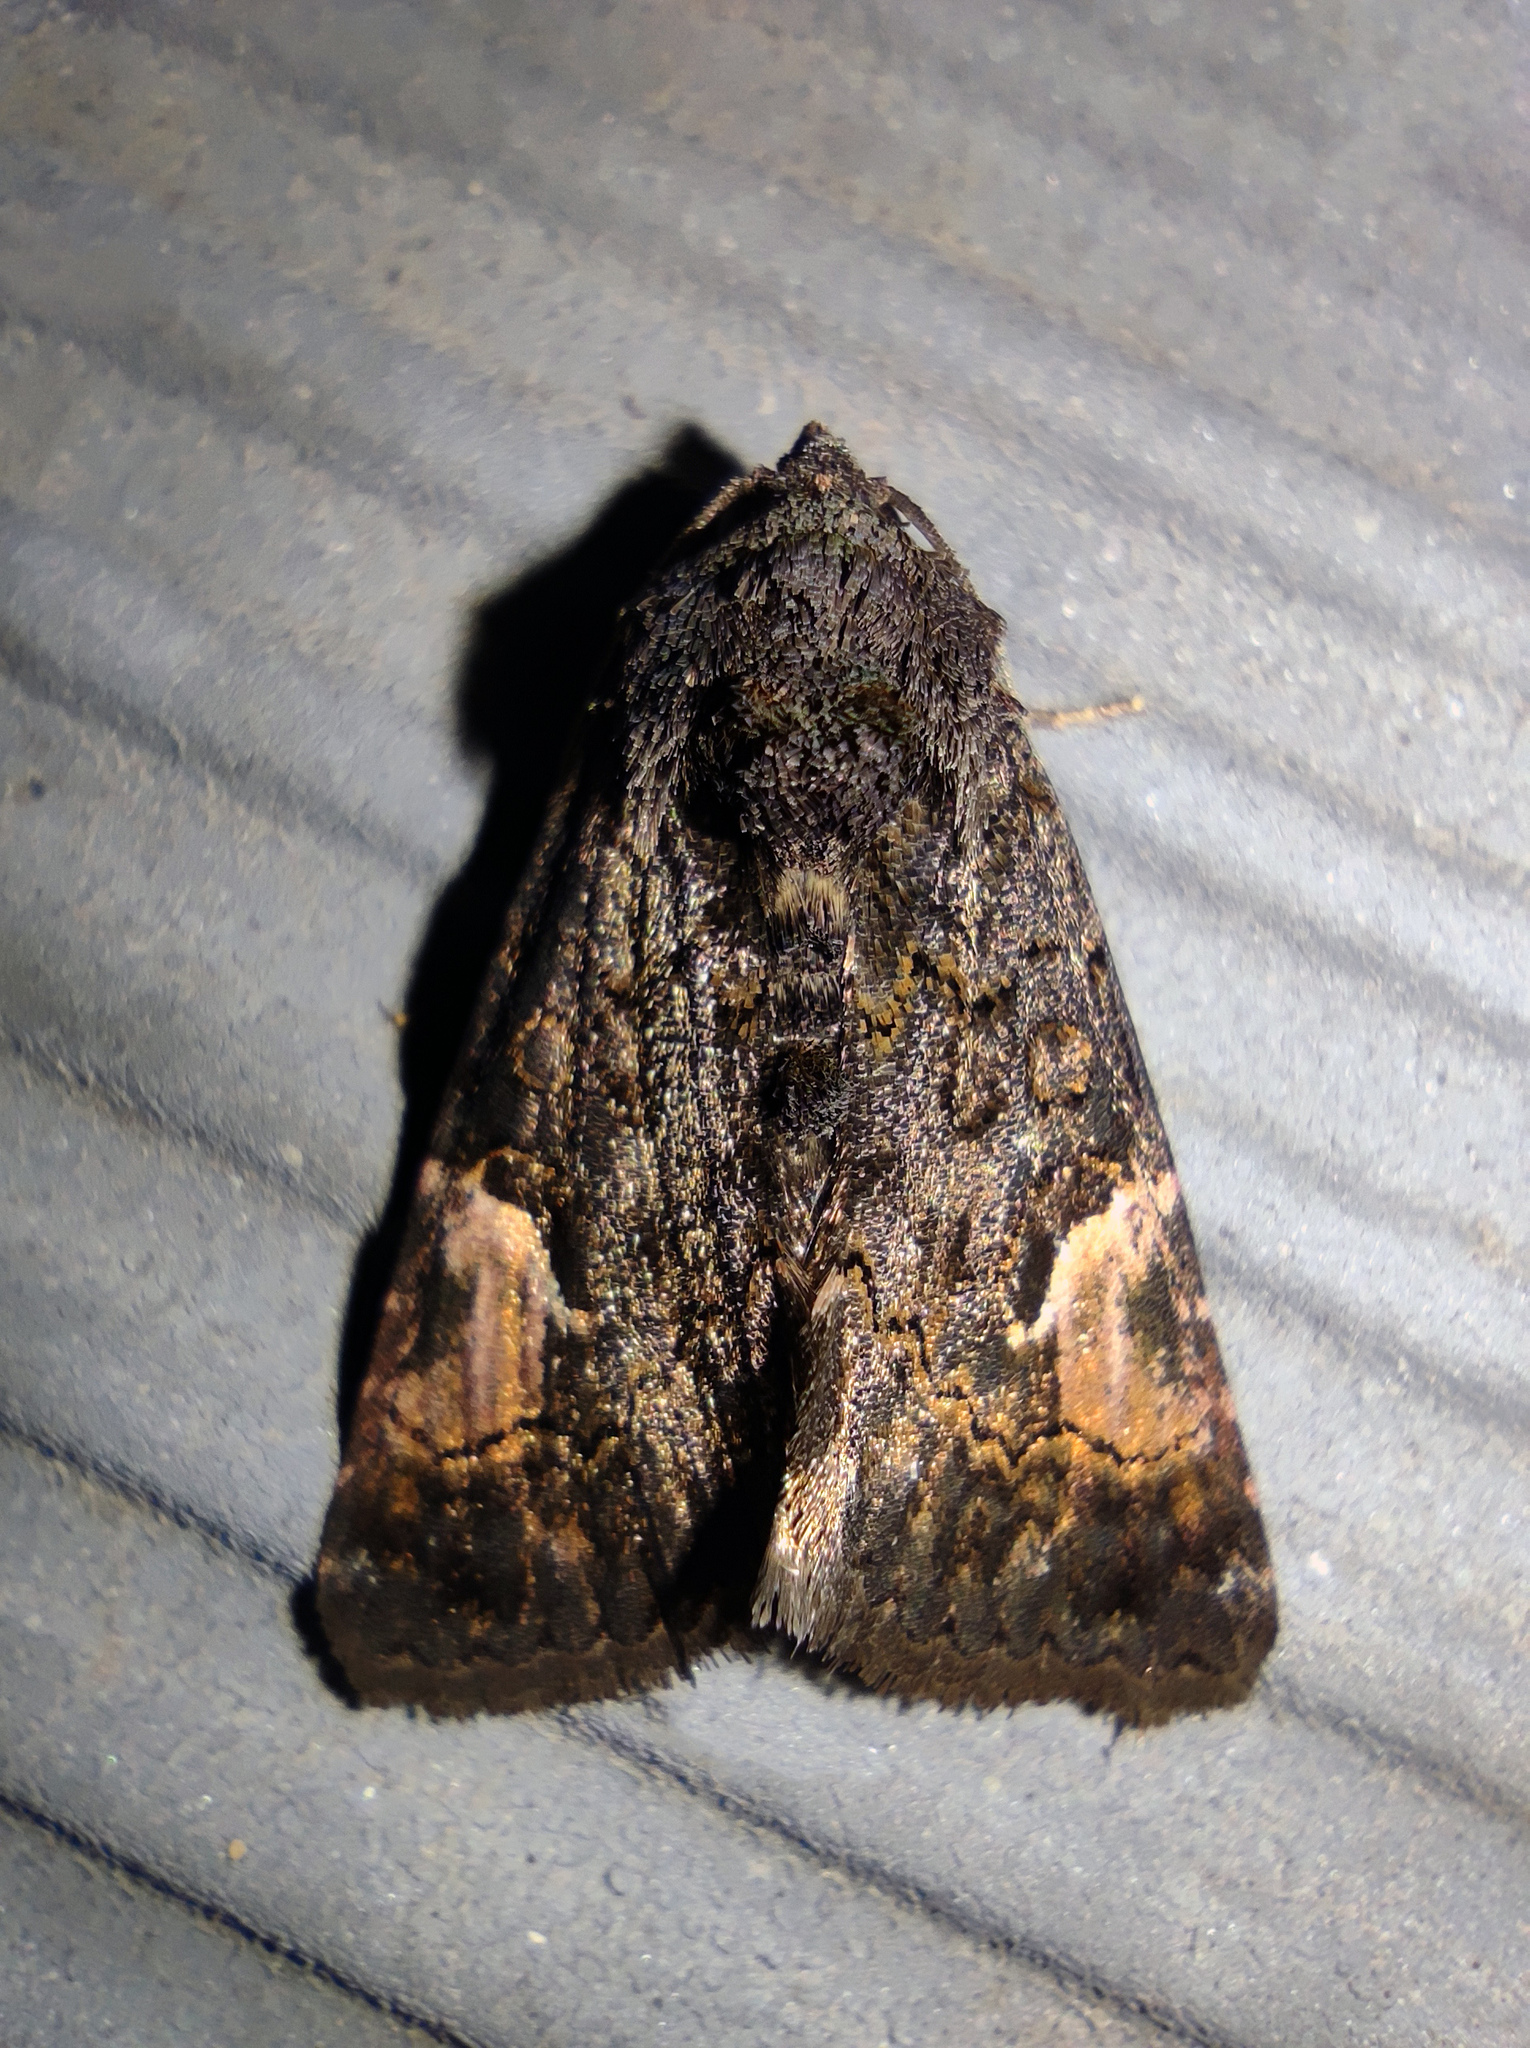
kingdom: Animalia
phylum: Arthropoda
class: Insecta
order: Lepidoptera
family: Noctuidae
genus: Aedia
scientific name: Aedia funesta
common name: The druid
